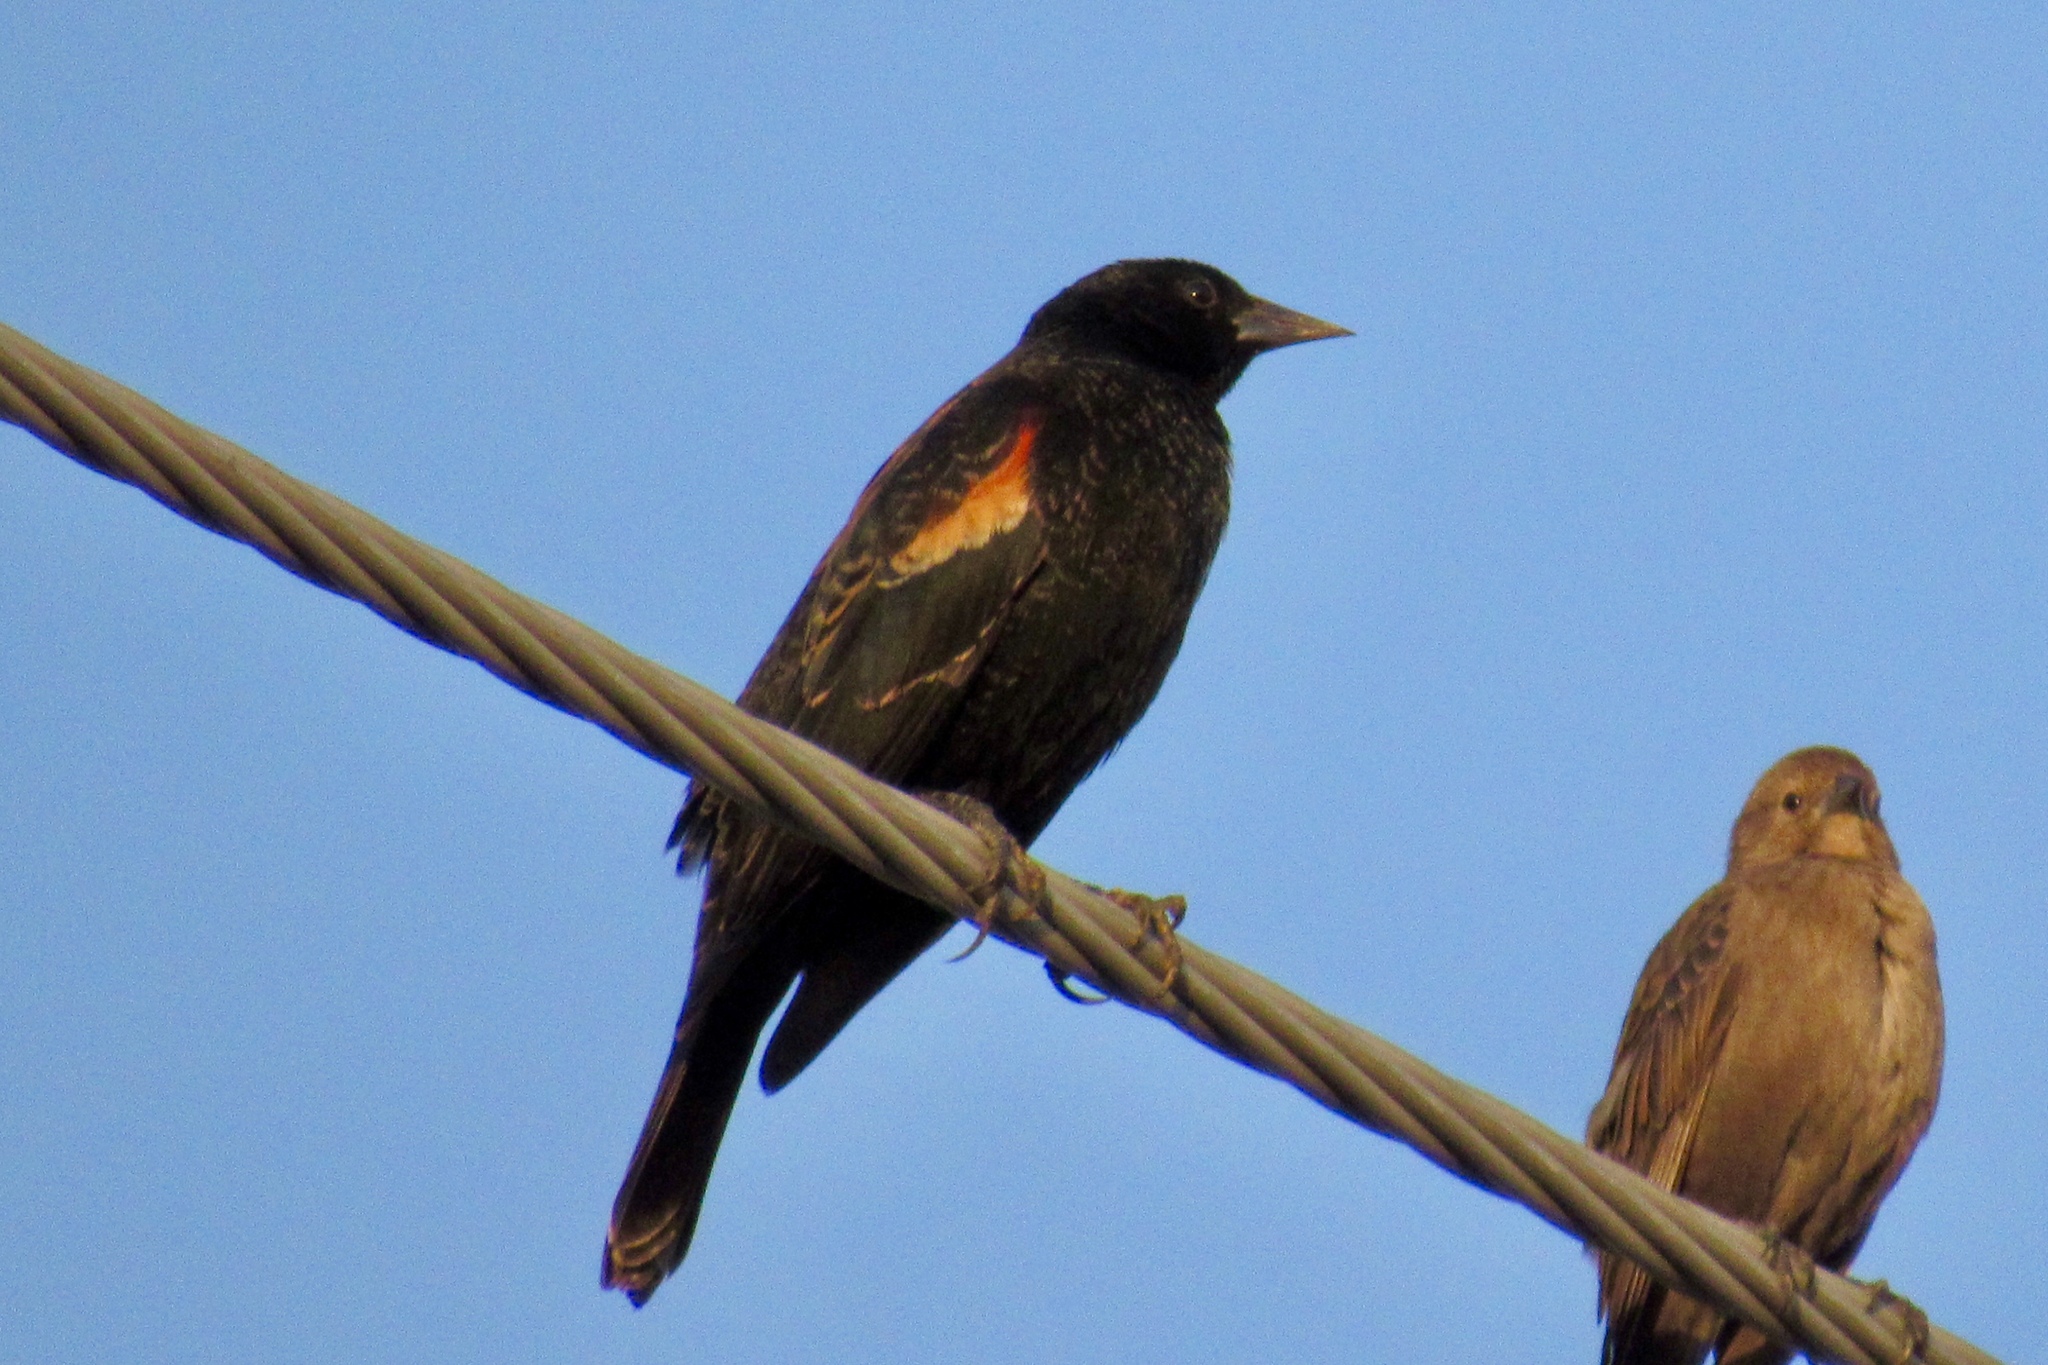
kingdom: Animalia
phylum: Chordata
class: Aves
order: Passeriformes
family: Icteridae
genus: Agelaius
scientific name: Agelaius phoeniceus
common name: Red-winged blackbird
